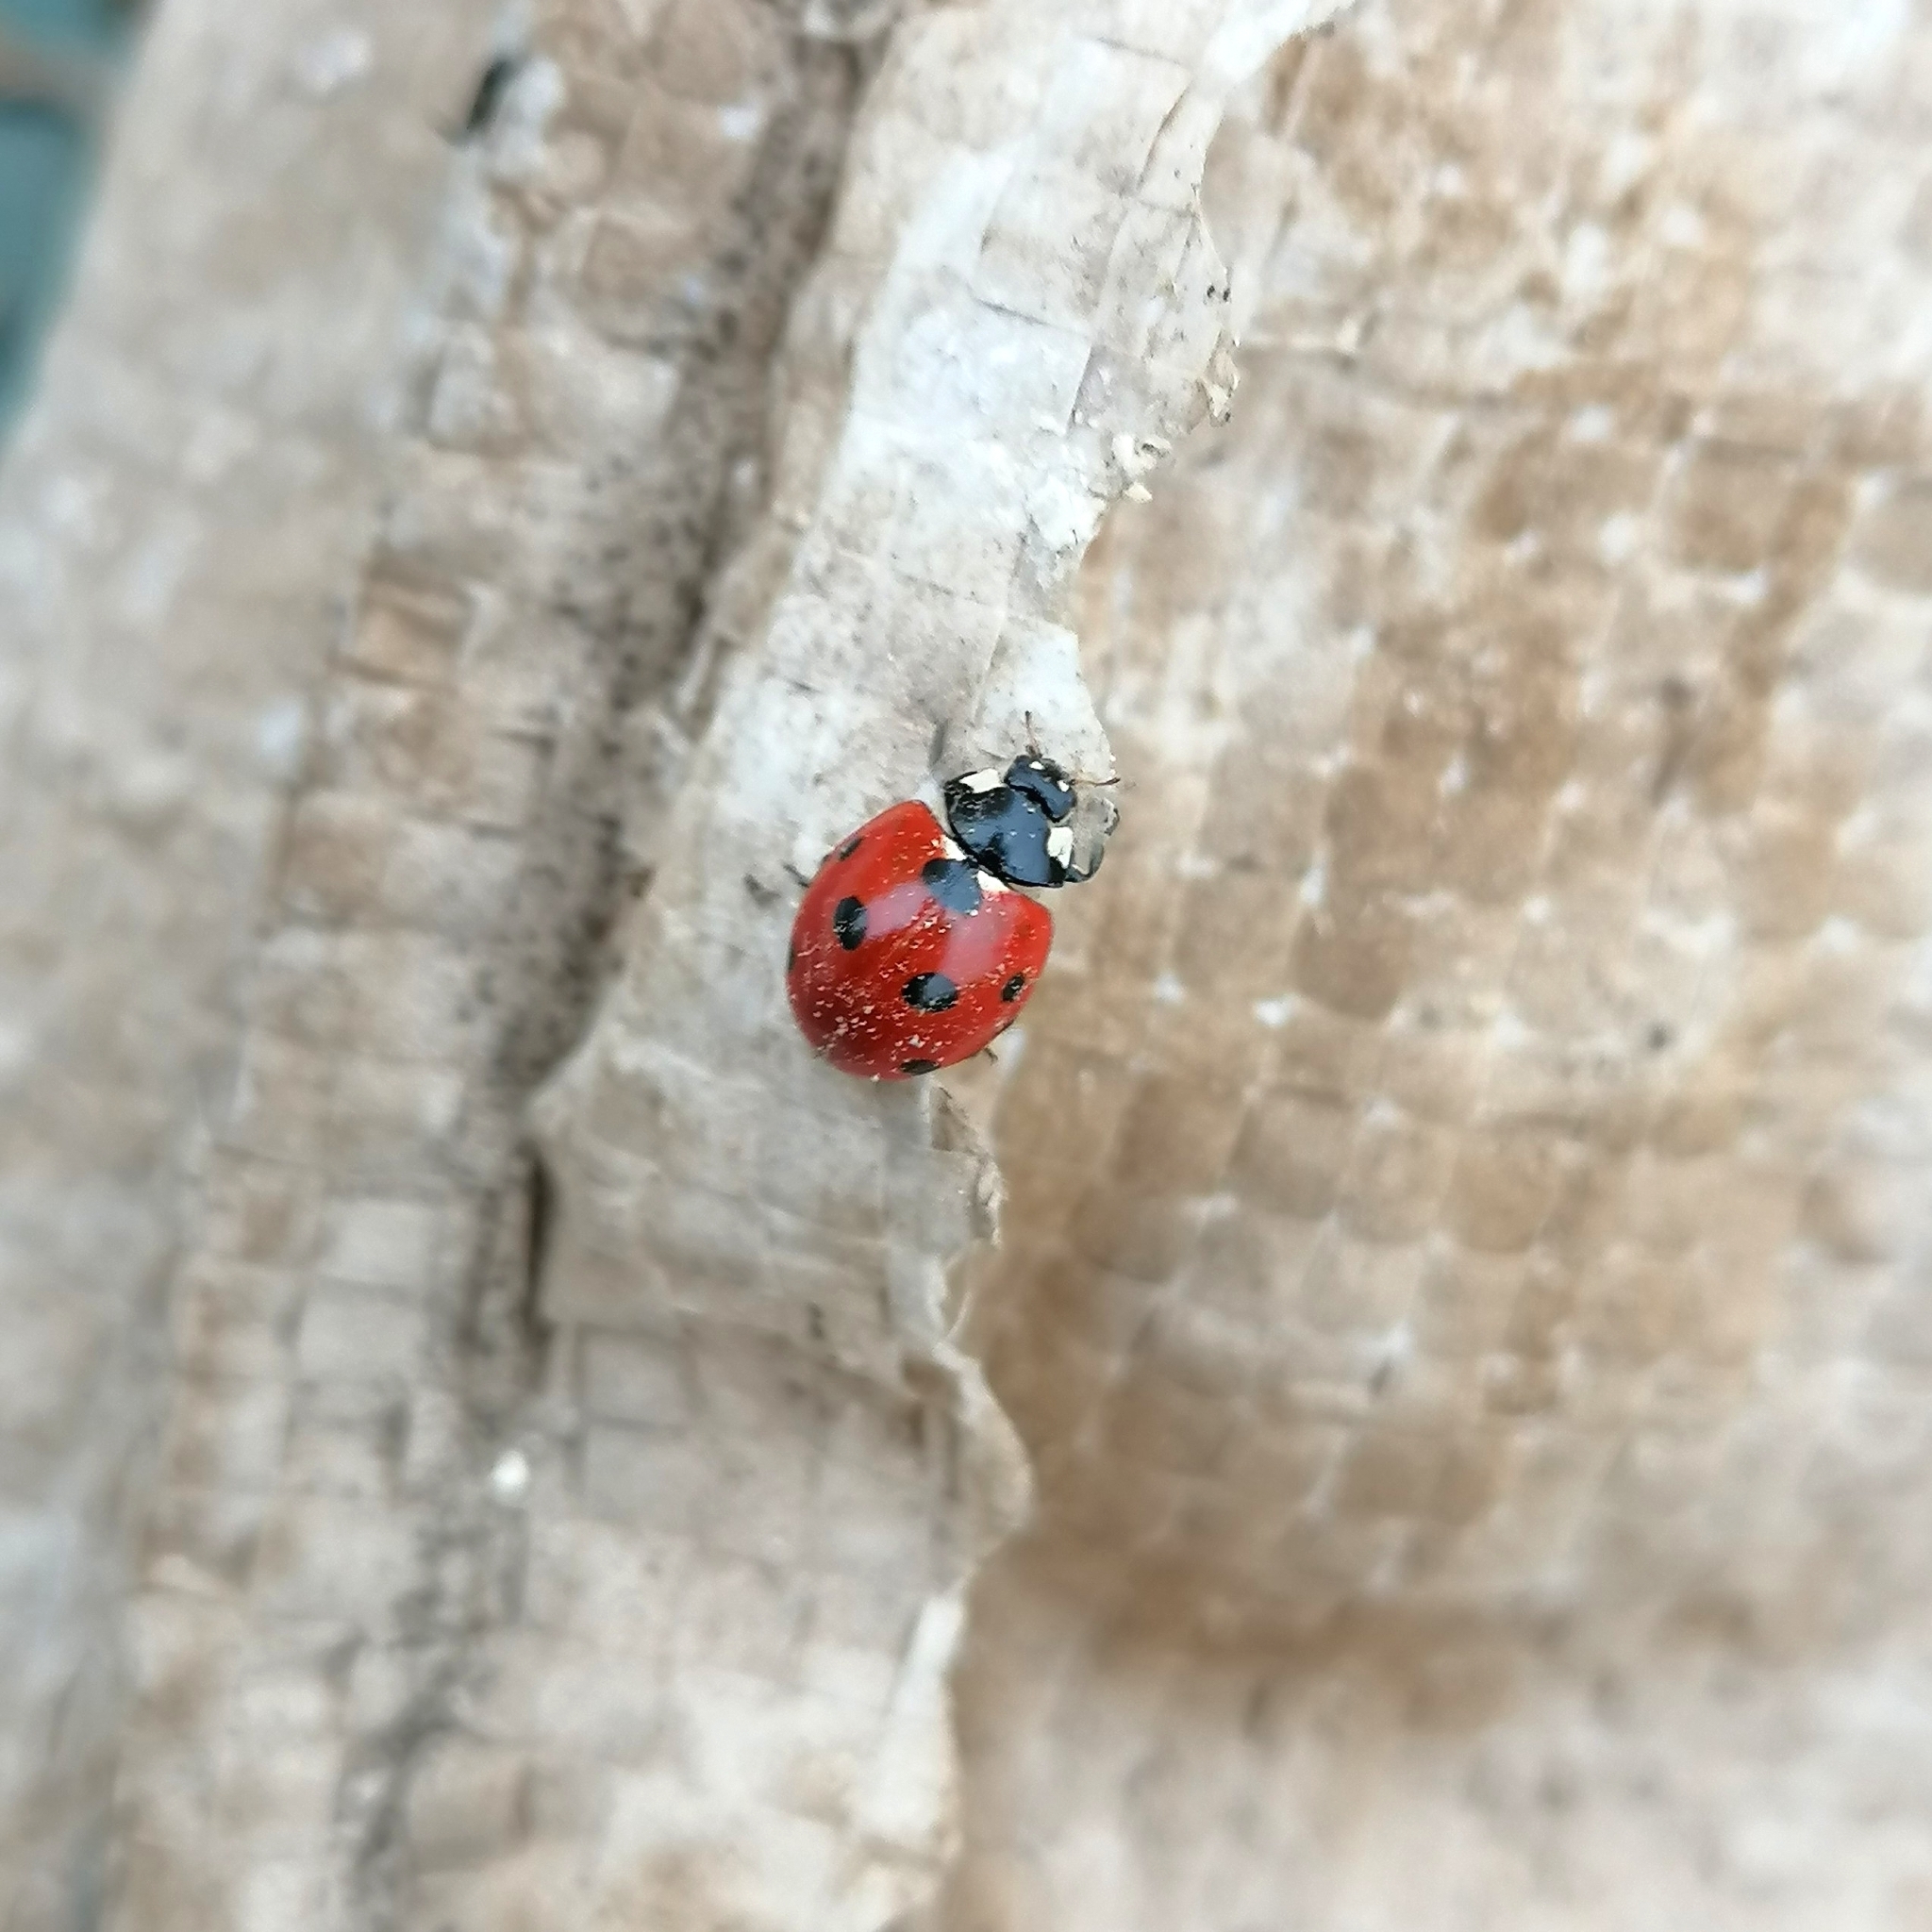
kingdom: Animalia
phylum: Arthropoda
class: Insecta
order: Coleoptera
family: Coccinellidae
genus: Coccinella
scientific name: Coccinella septempunctata
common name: Sevenspotted lady beetle
